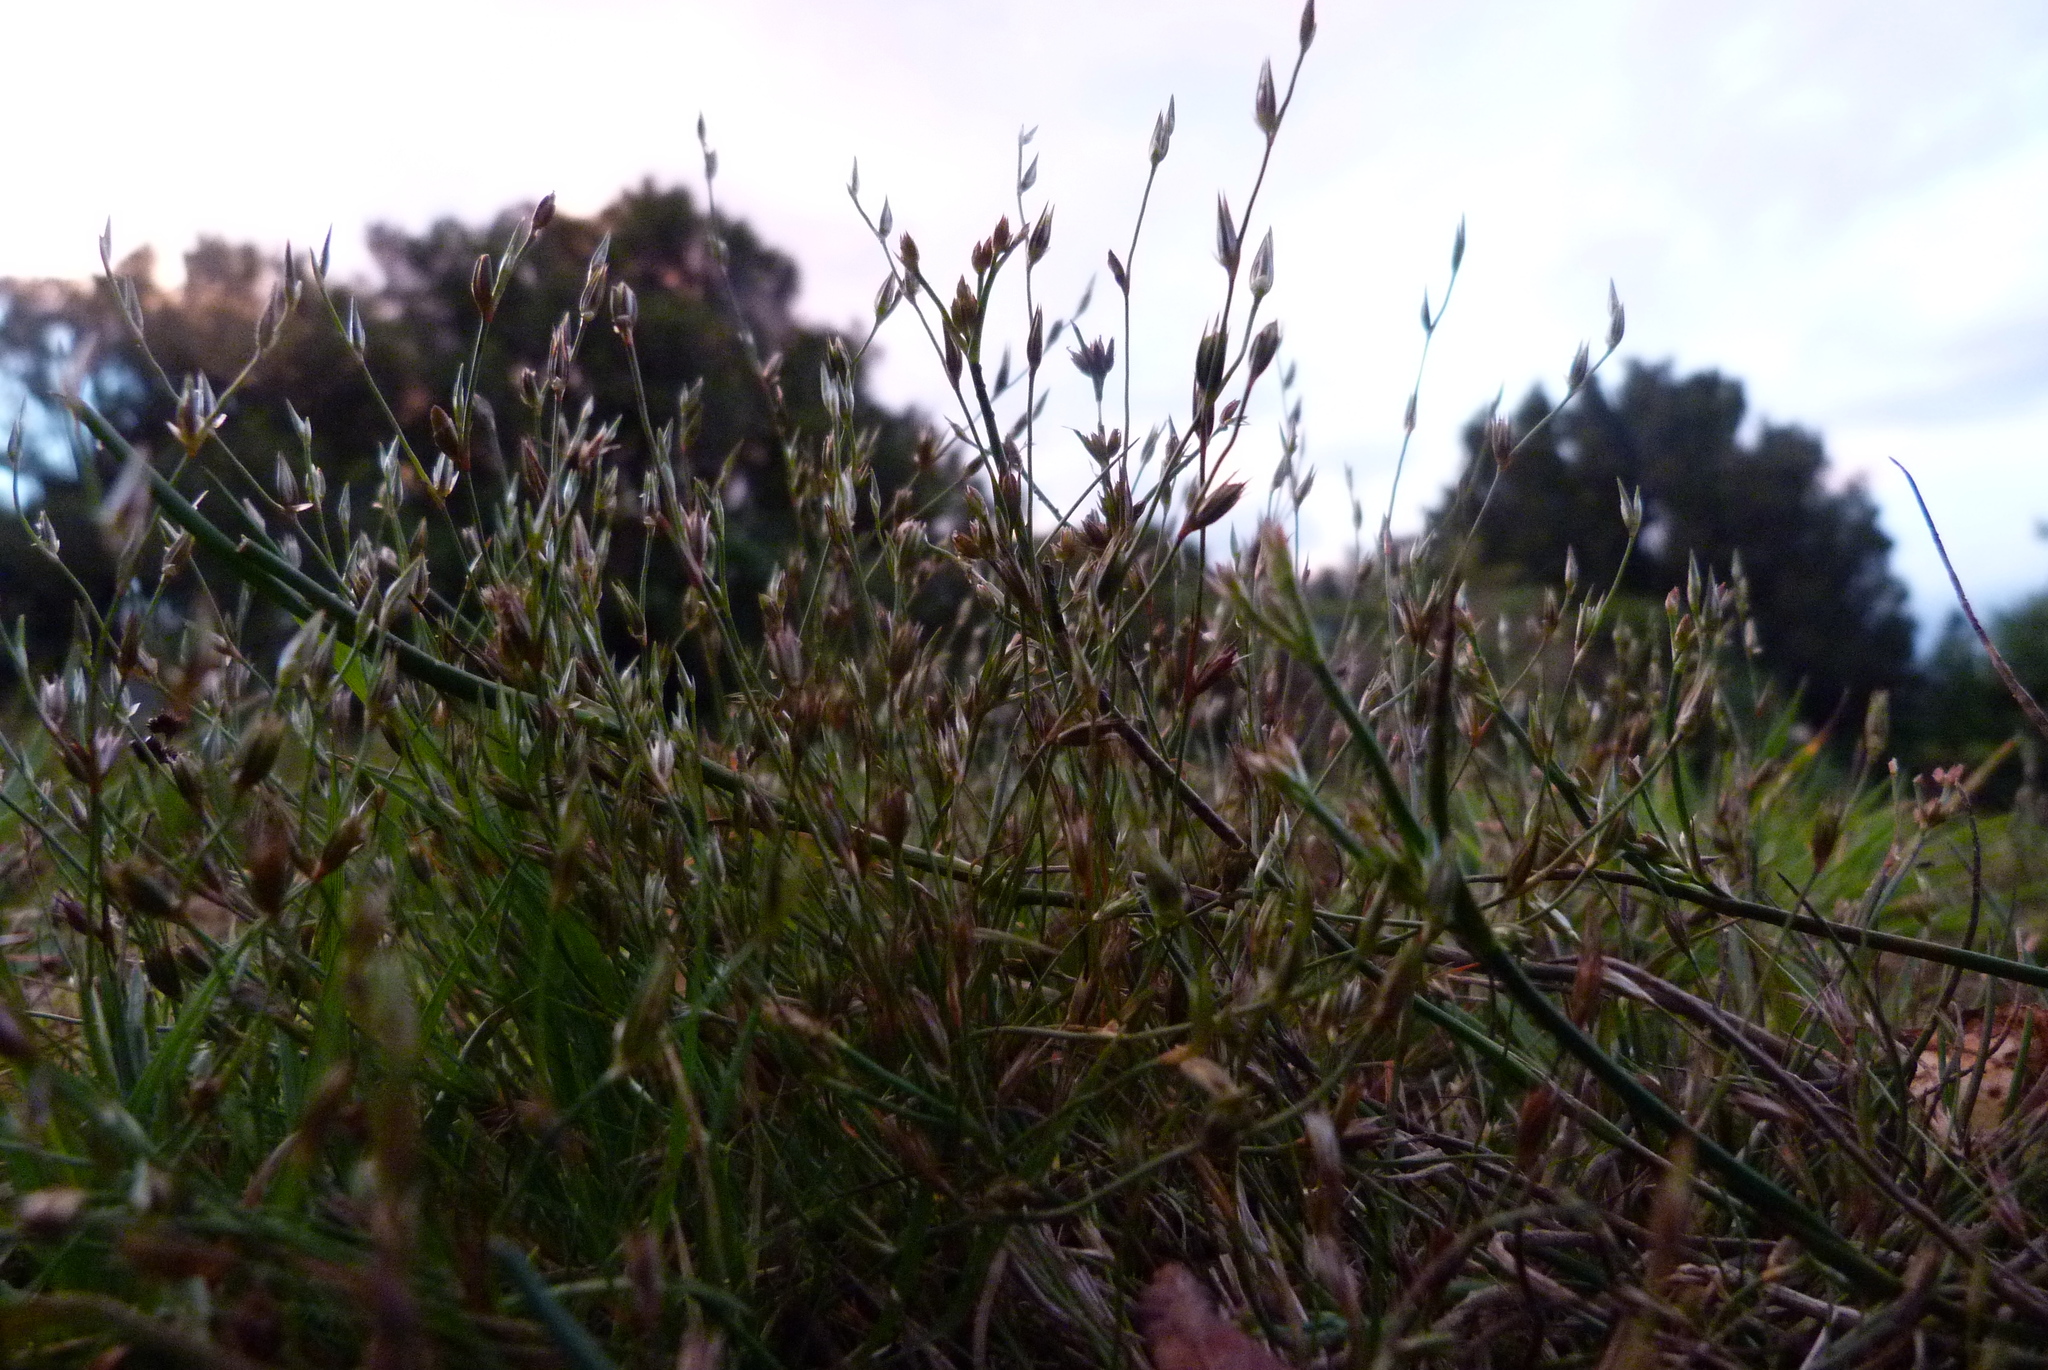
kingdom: Plantae
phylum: Tracheophyta
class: Liliopsida
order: Poales
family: Juncaceae
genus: Juncus
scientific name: Juncus bufonius
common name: Toad rush
